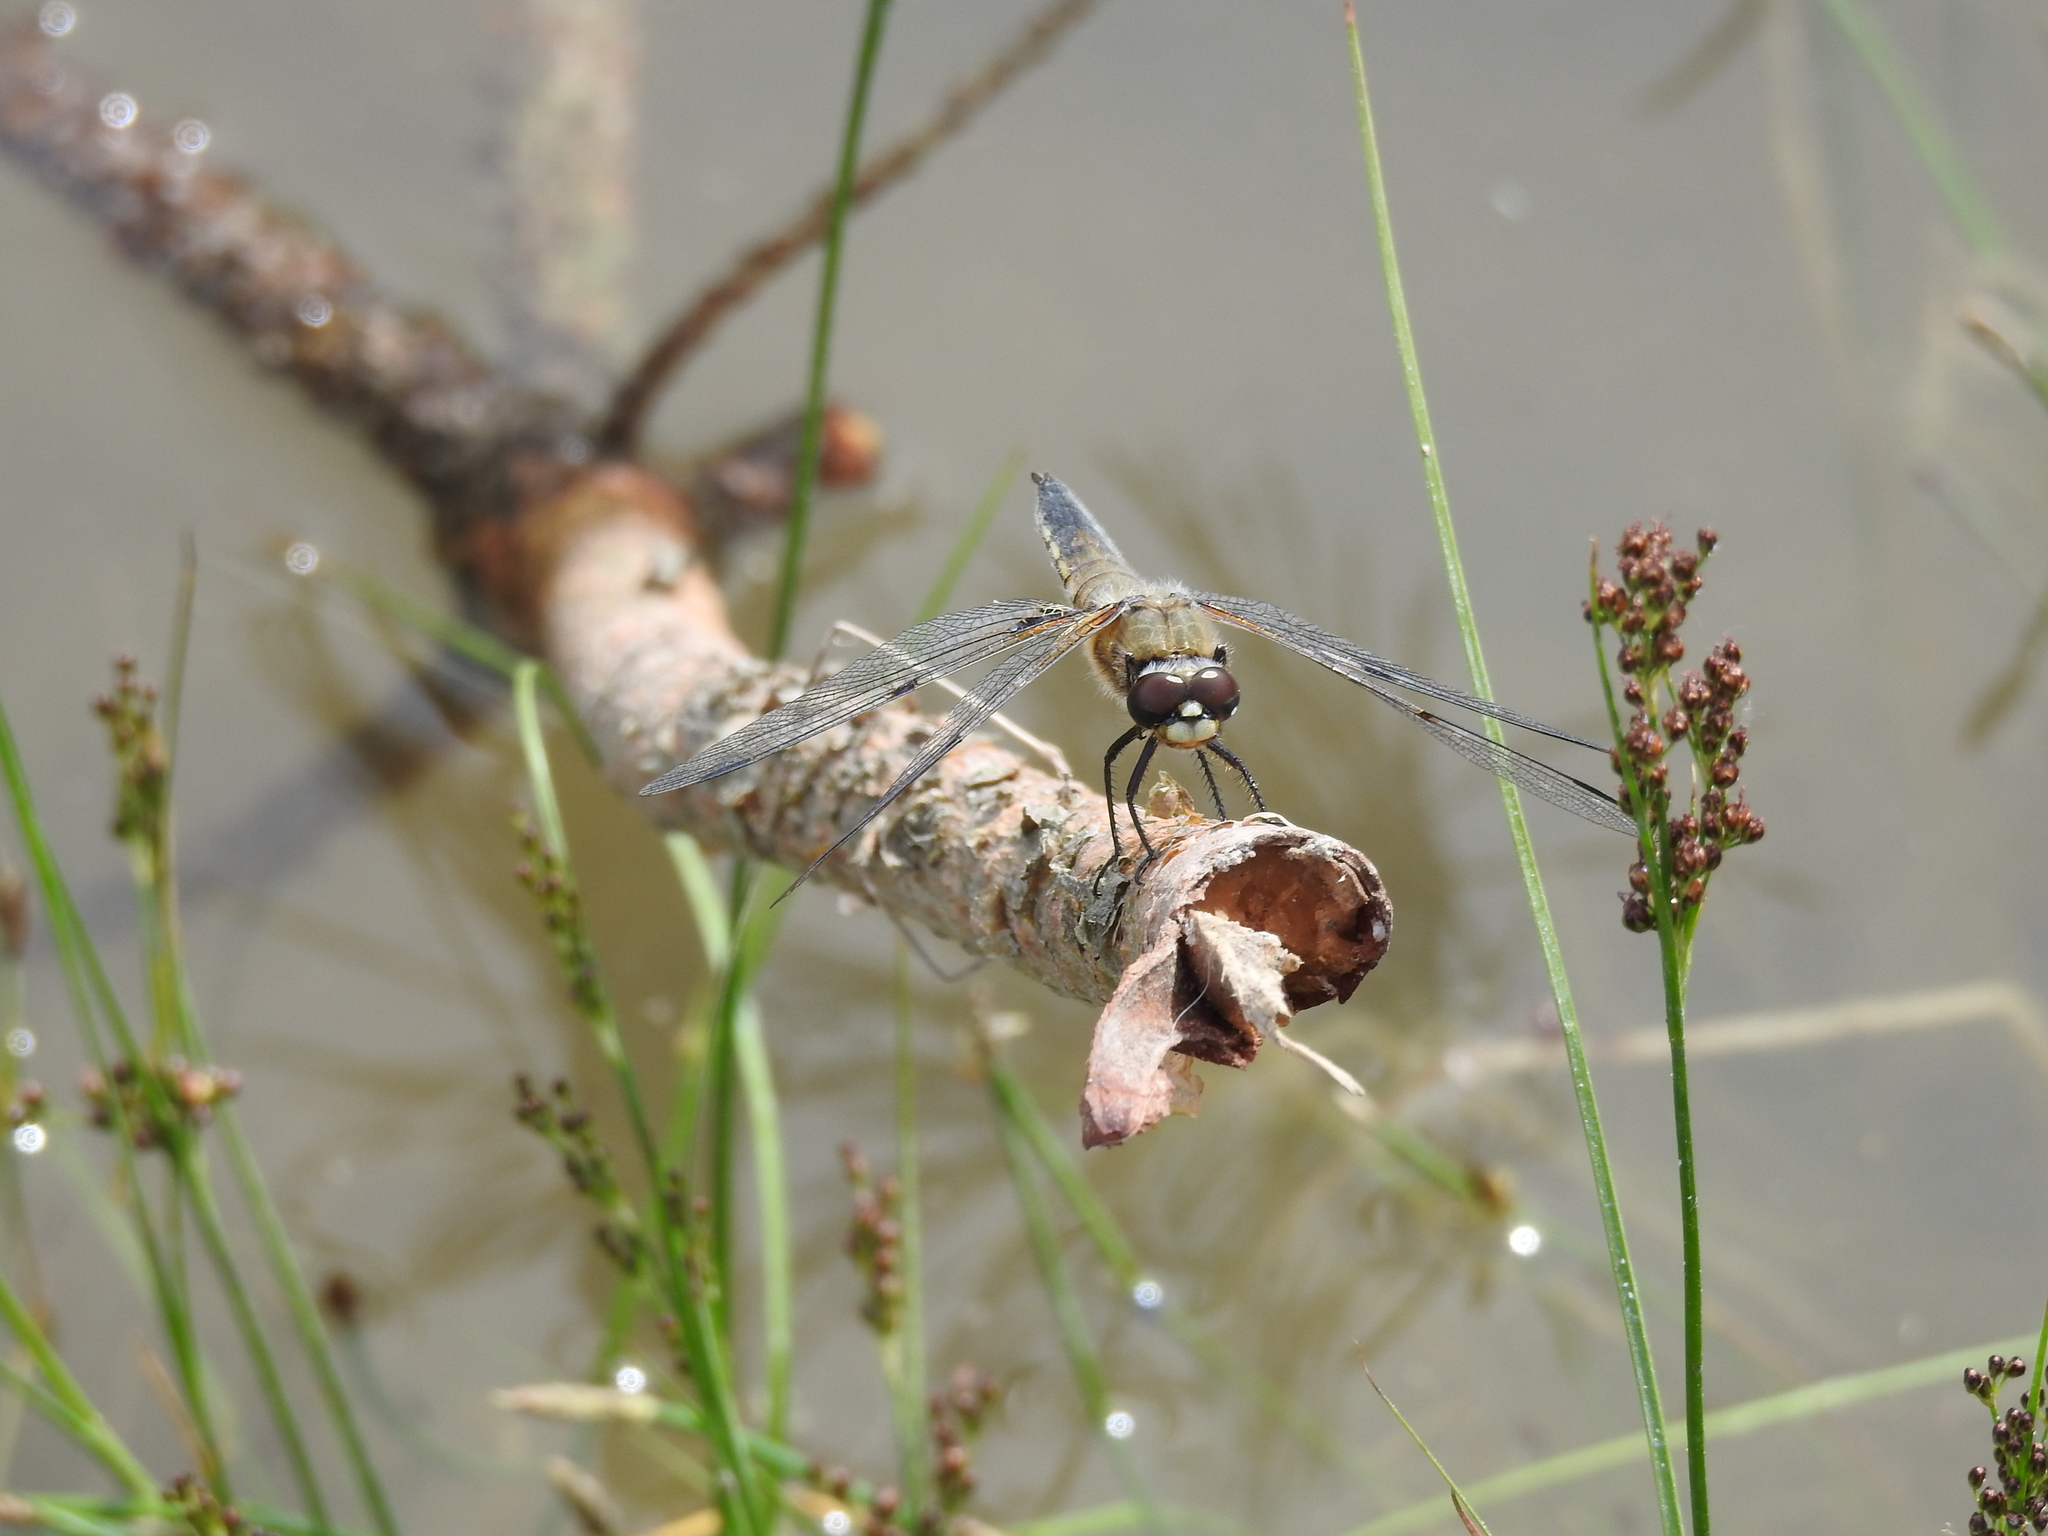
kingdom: Animalia
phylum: Arthropoda
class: Insecta
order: Odonata
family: Libellulidae
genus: Libellula
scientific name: Libellula quadrimaculata
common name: Four-spotted chaser
